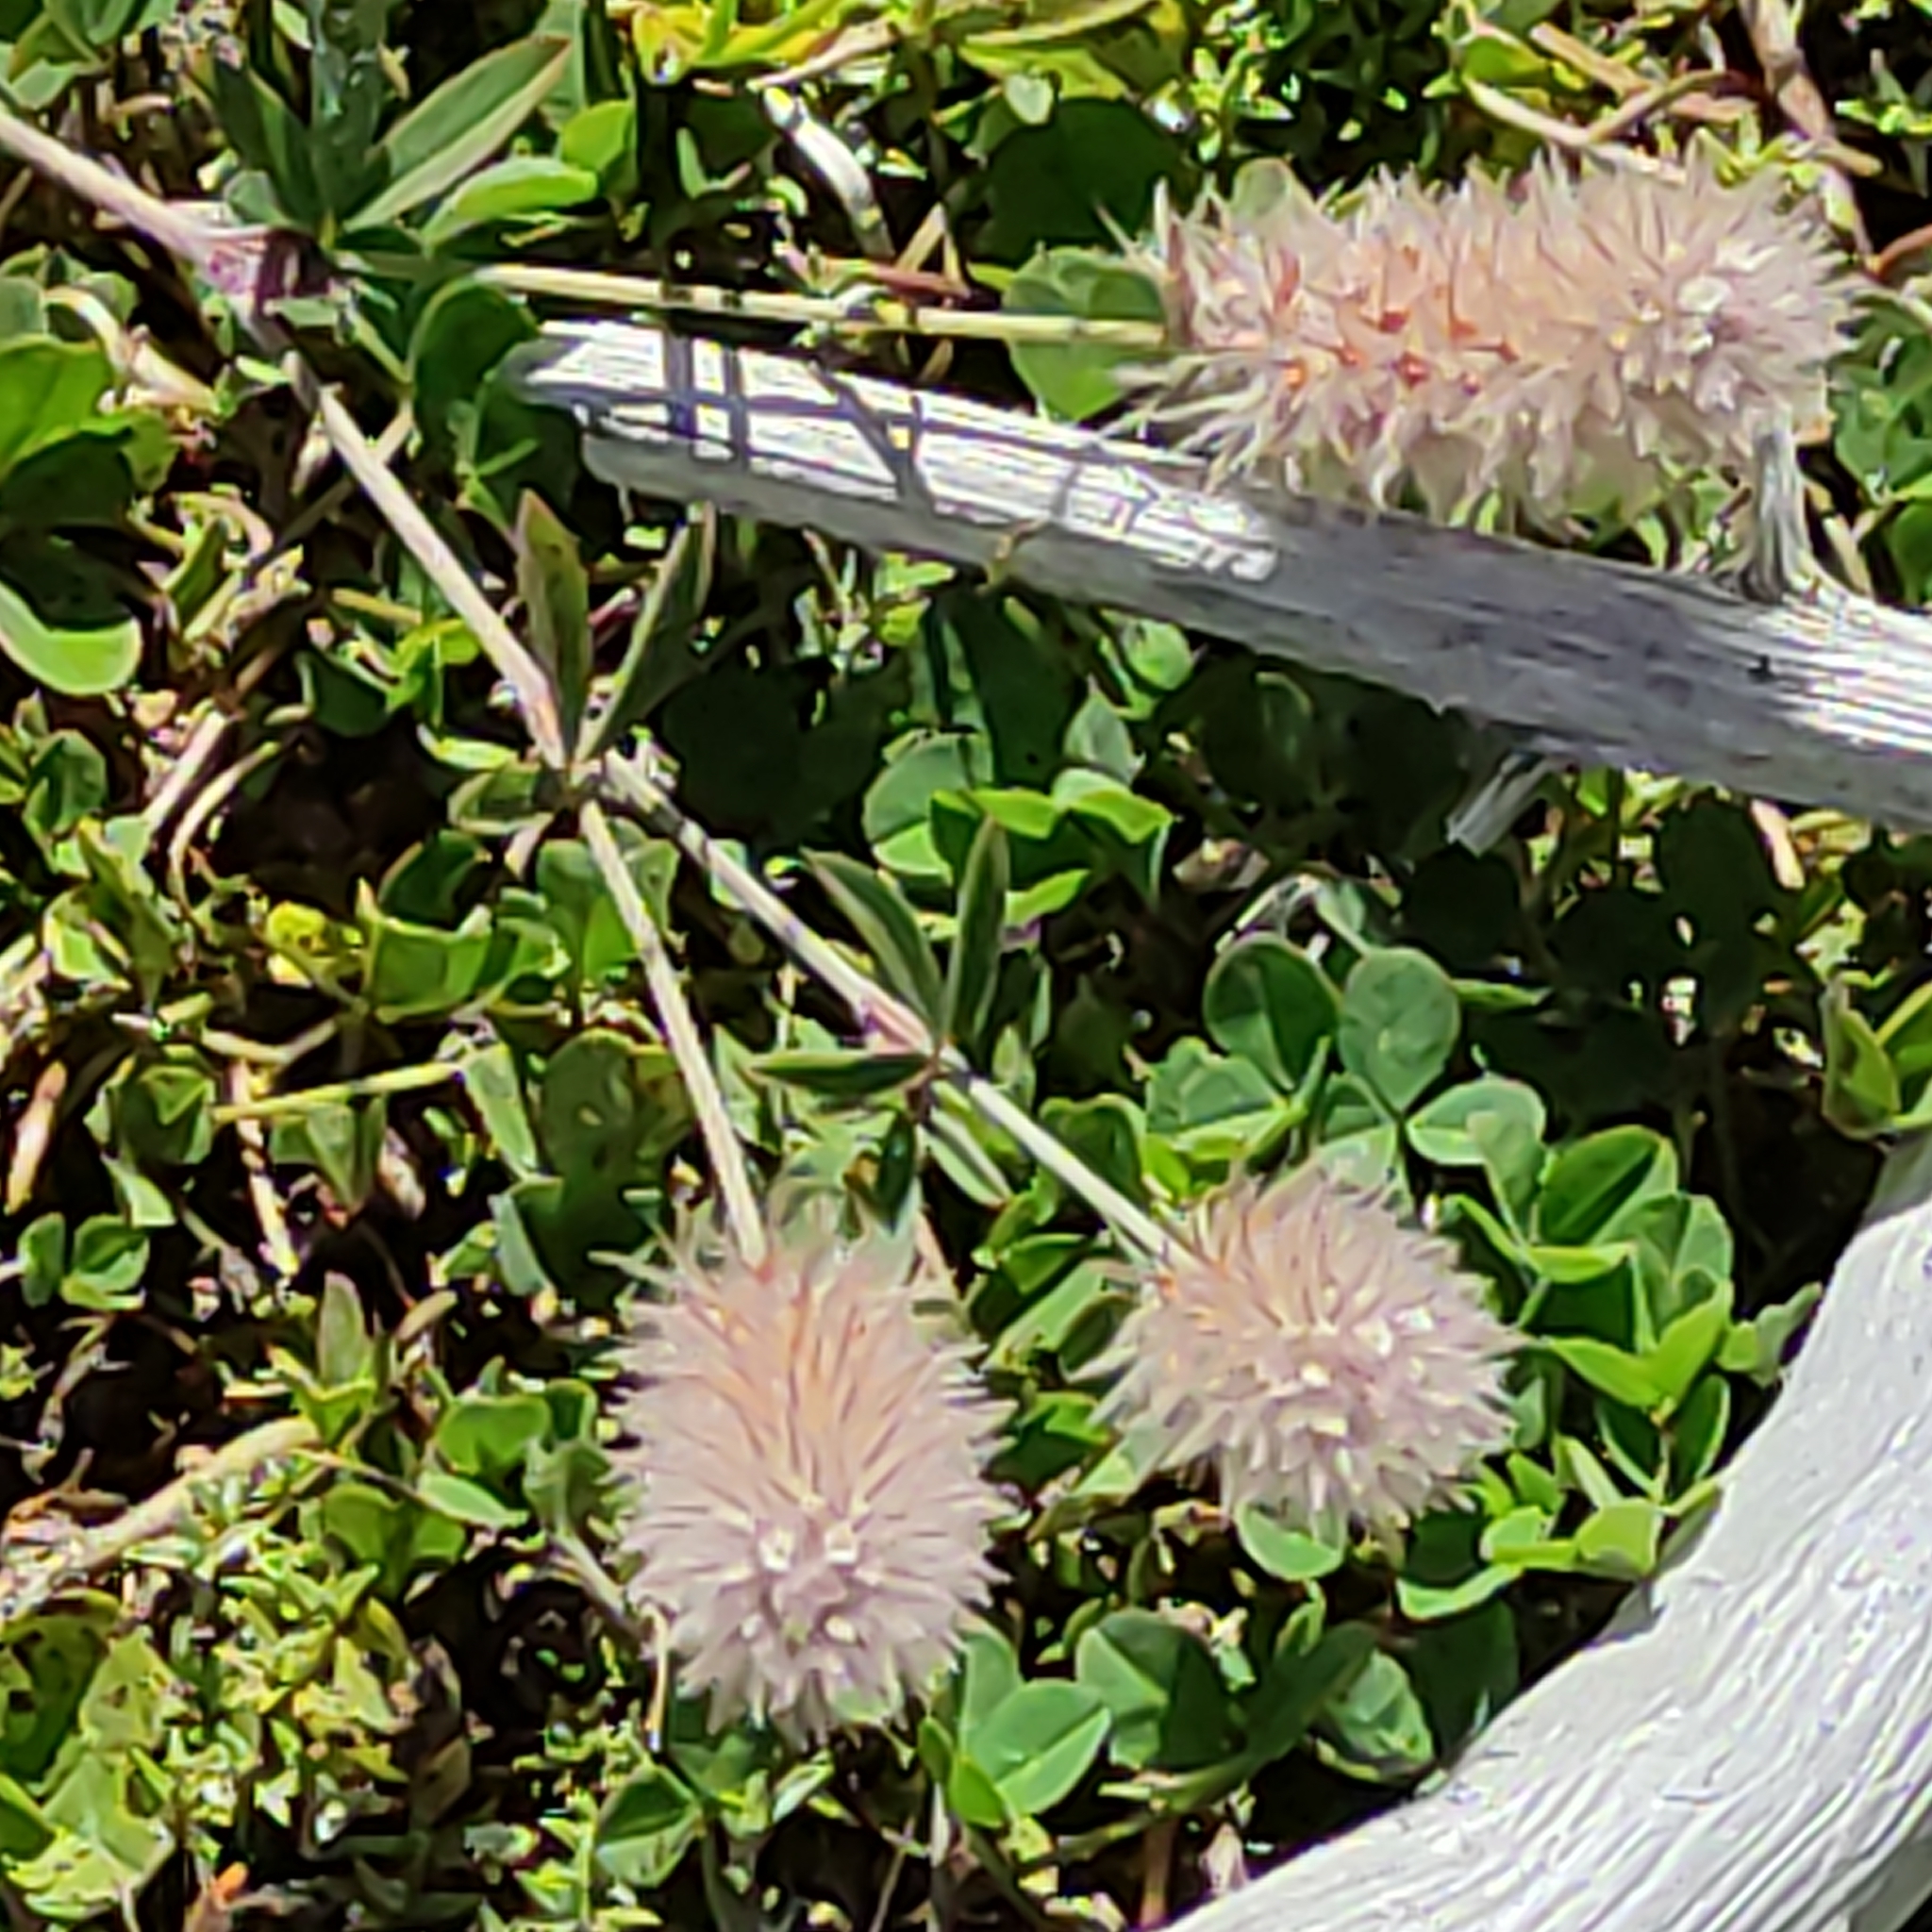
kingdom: Plantae
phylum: Tracheophyta
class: Magnoliopsida
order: Fabales
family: Fabaceae
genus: Trifolium
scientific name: Trifolium arvense
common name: Hare's-foot clover
